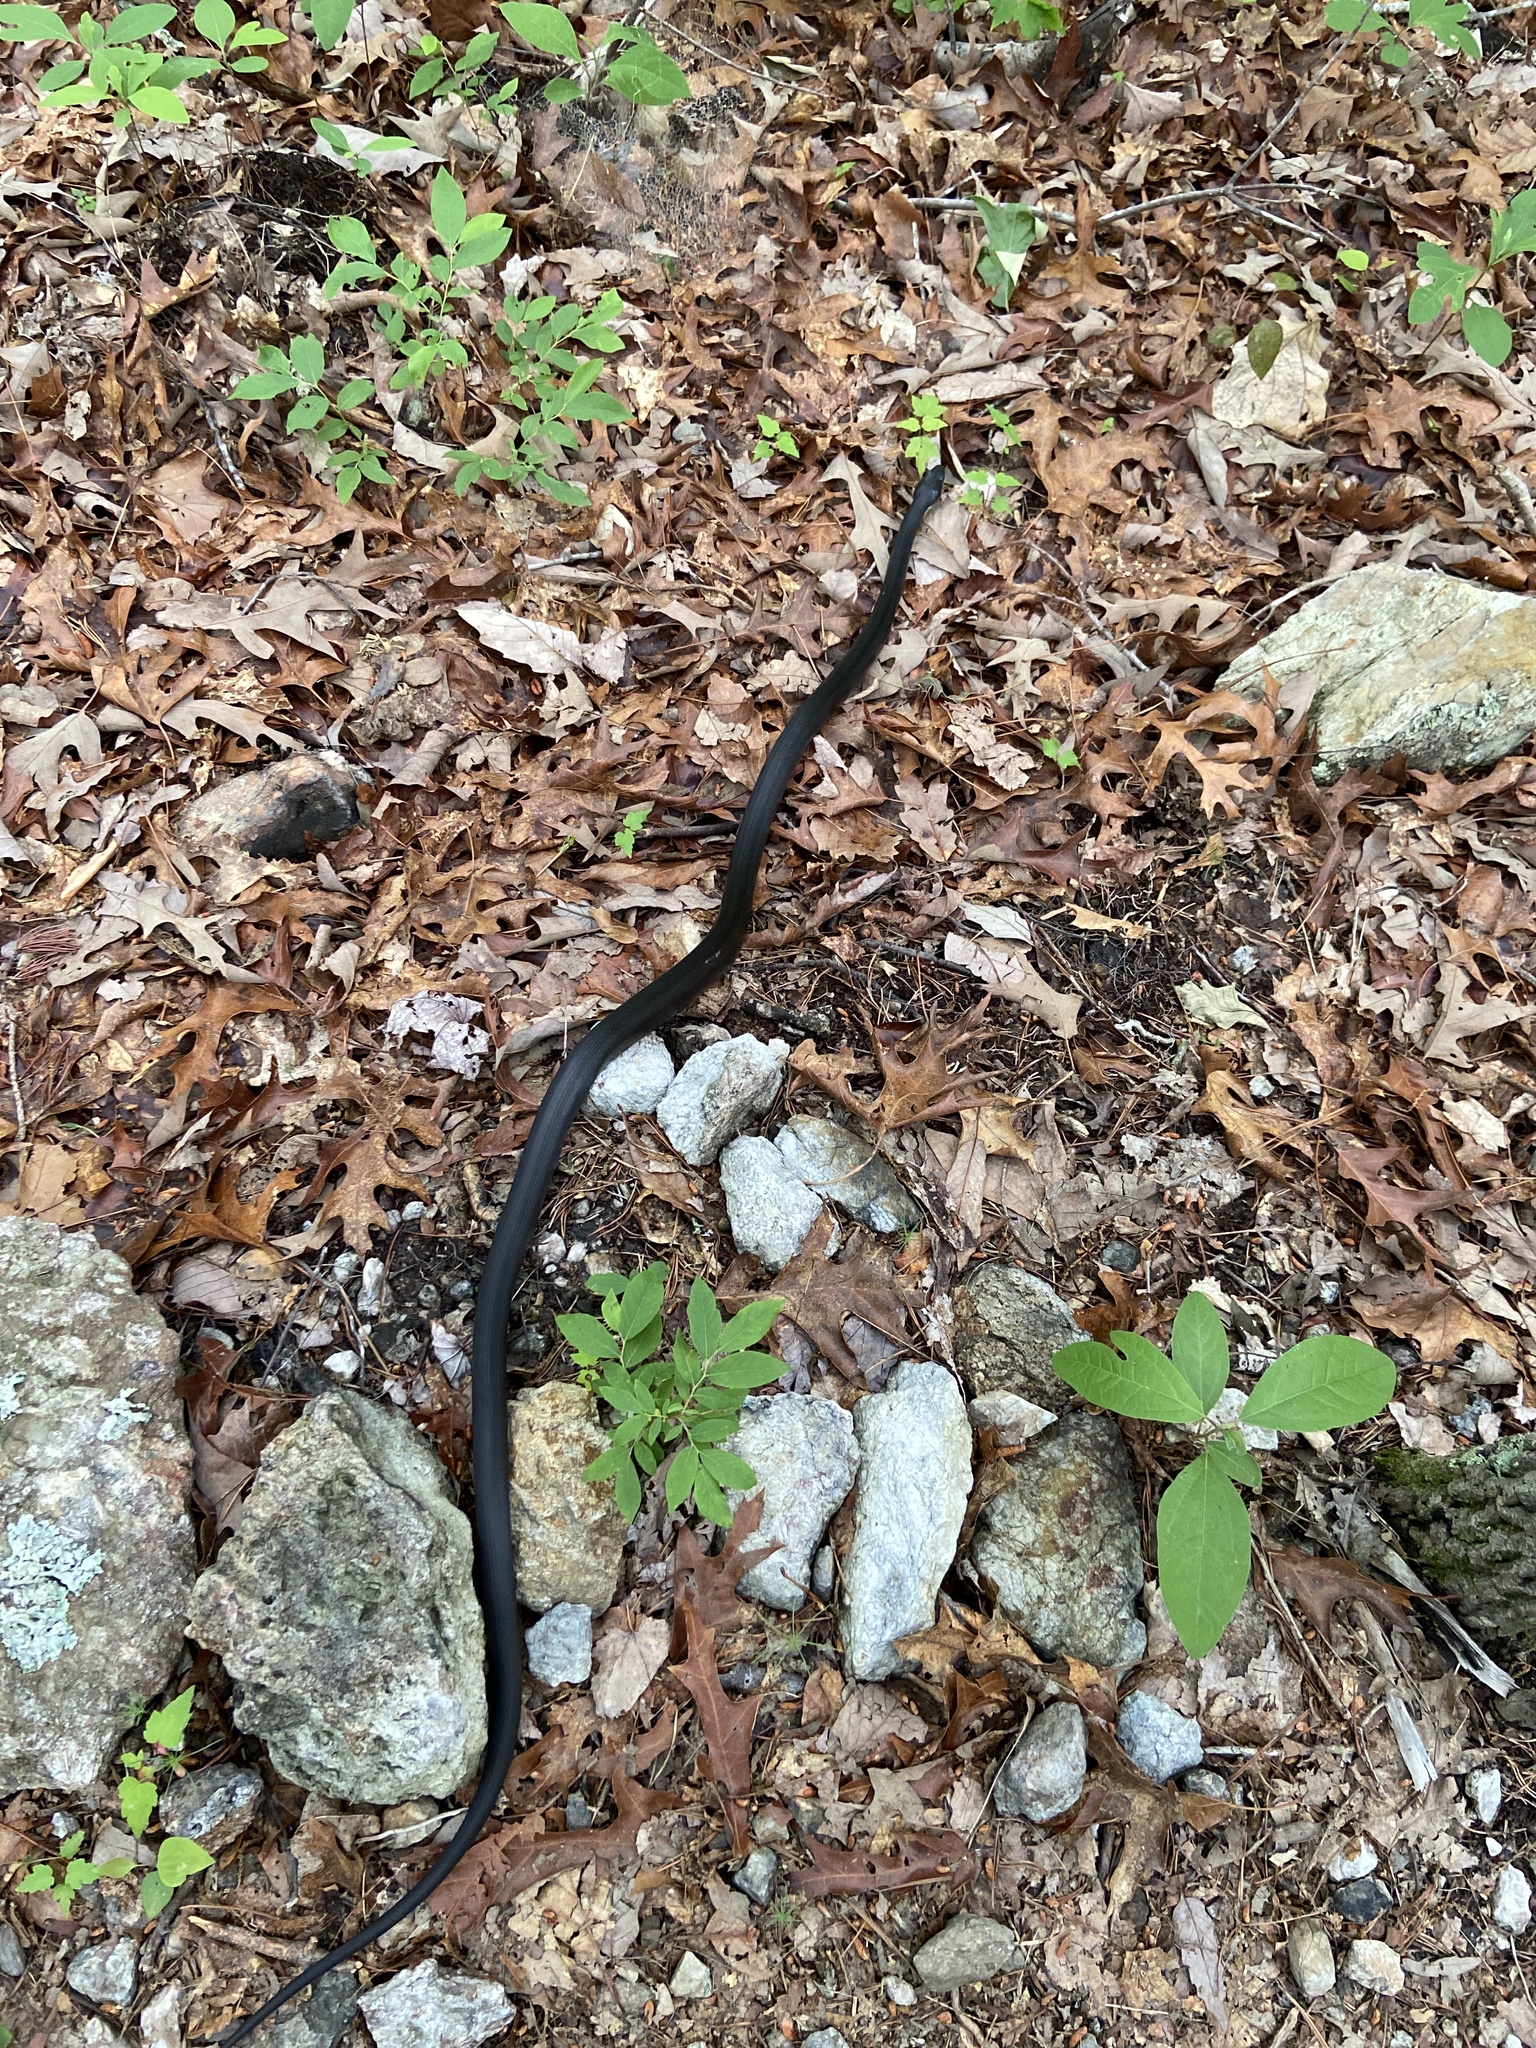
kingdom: Animalia
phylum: Chordata
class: Squamata
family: Colubridae
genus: Pantherophis
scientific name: Pantherophis
